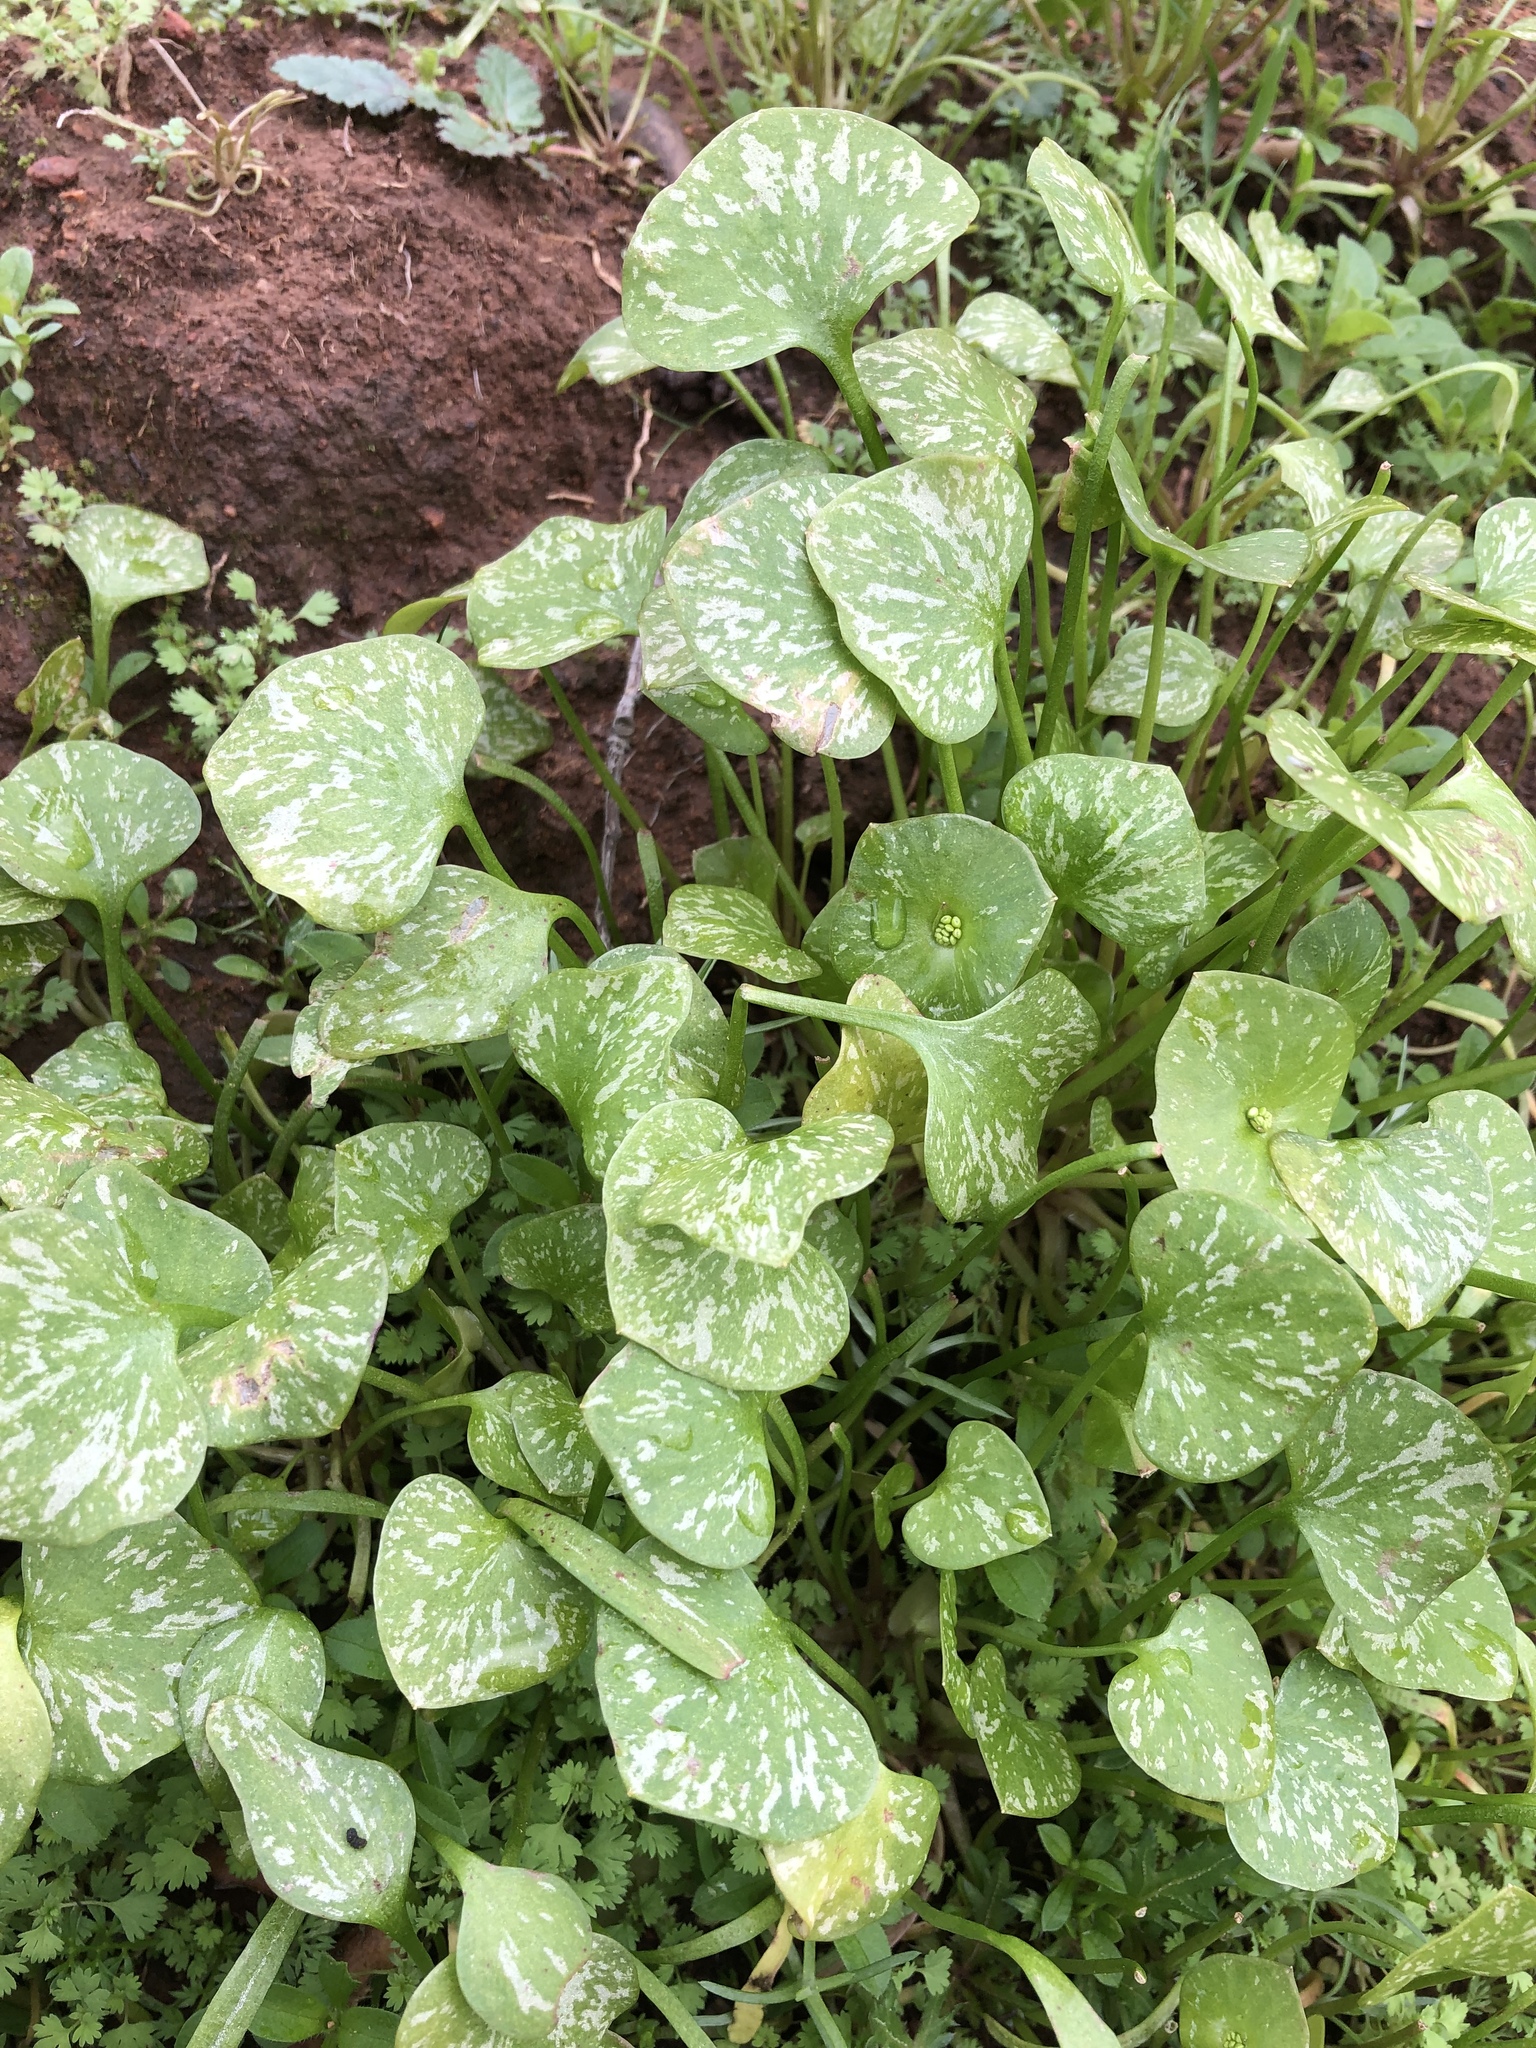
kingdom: Plantae
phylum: Tracheophyta
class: Magnoliopsida
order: Caryophyllales
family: Montiaceae
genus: Claytonia
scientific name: Claytonia perfoliata
